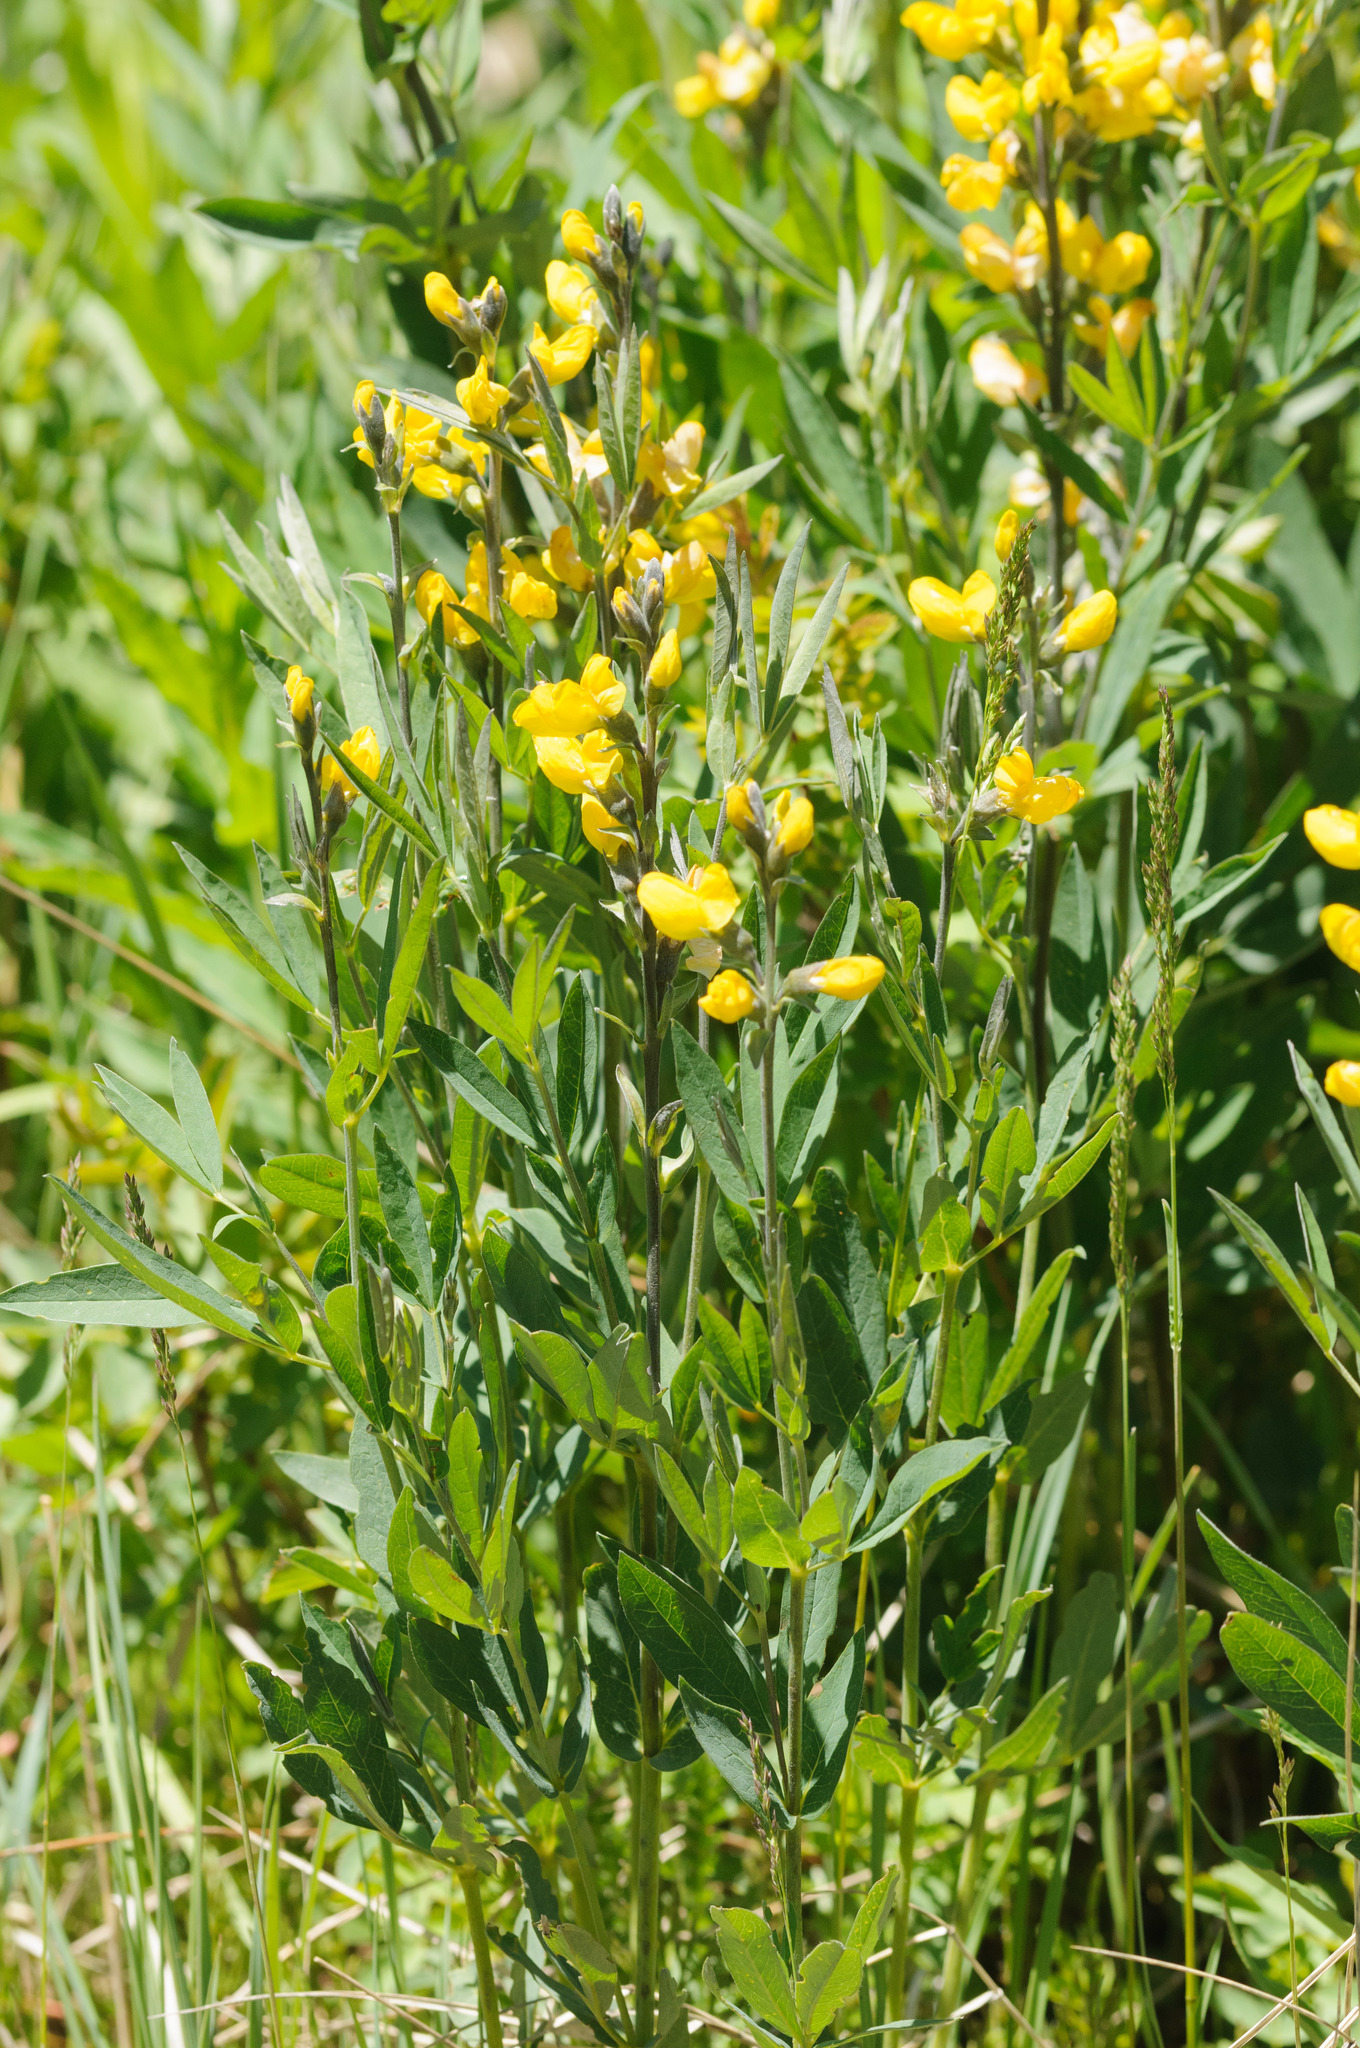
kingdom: Plantae
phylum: Tracheophyta
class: Magnoliopsida
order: Fabales
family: Fabaceae
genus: Thermopsis
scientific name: Thermopsis montana
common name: False lupin
